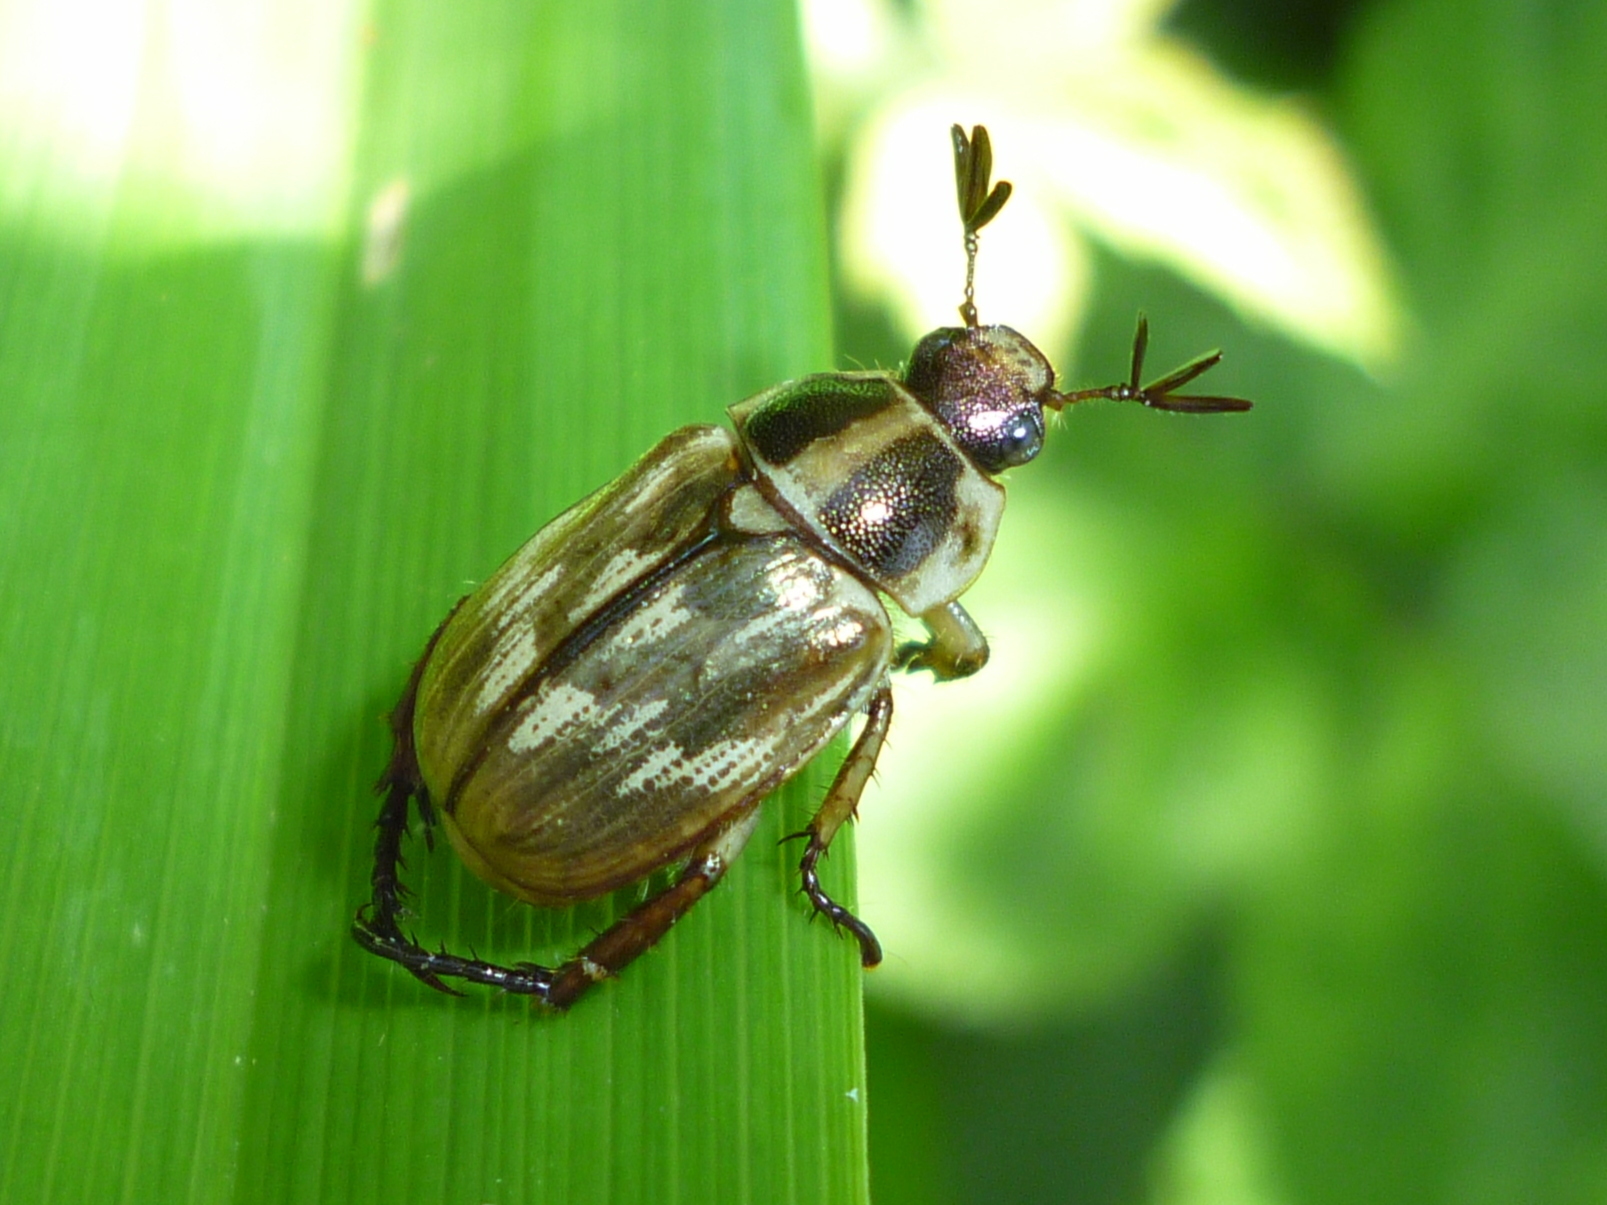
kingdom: Animalia
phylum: Arthropoda
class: Insecta
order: Coleoptera
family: Scarabaeidae
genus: Exomala
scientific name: Exomala orientalis
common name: Oriental beetle
